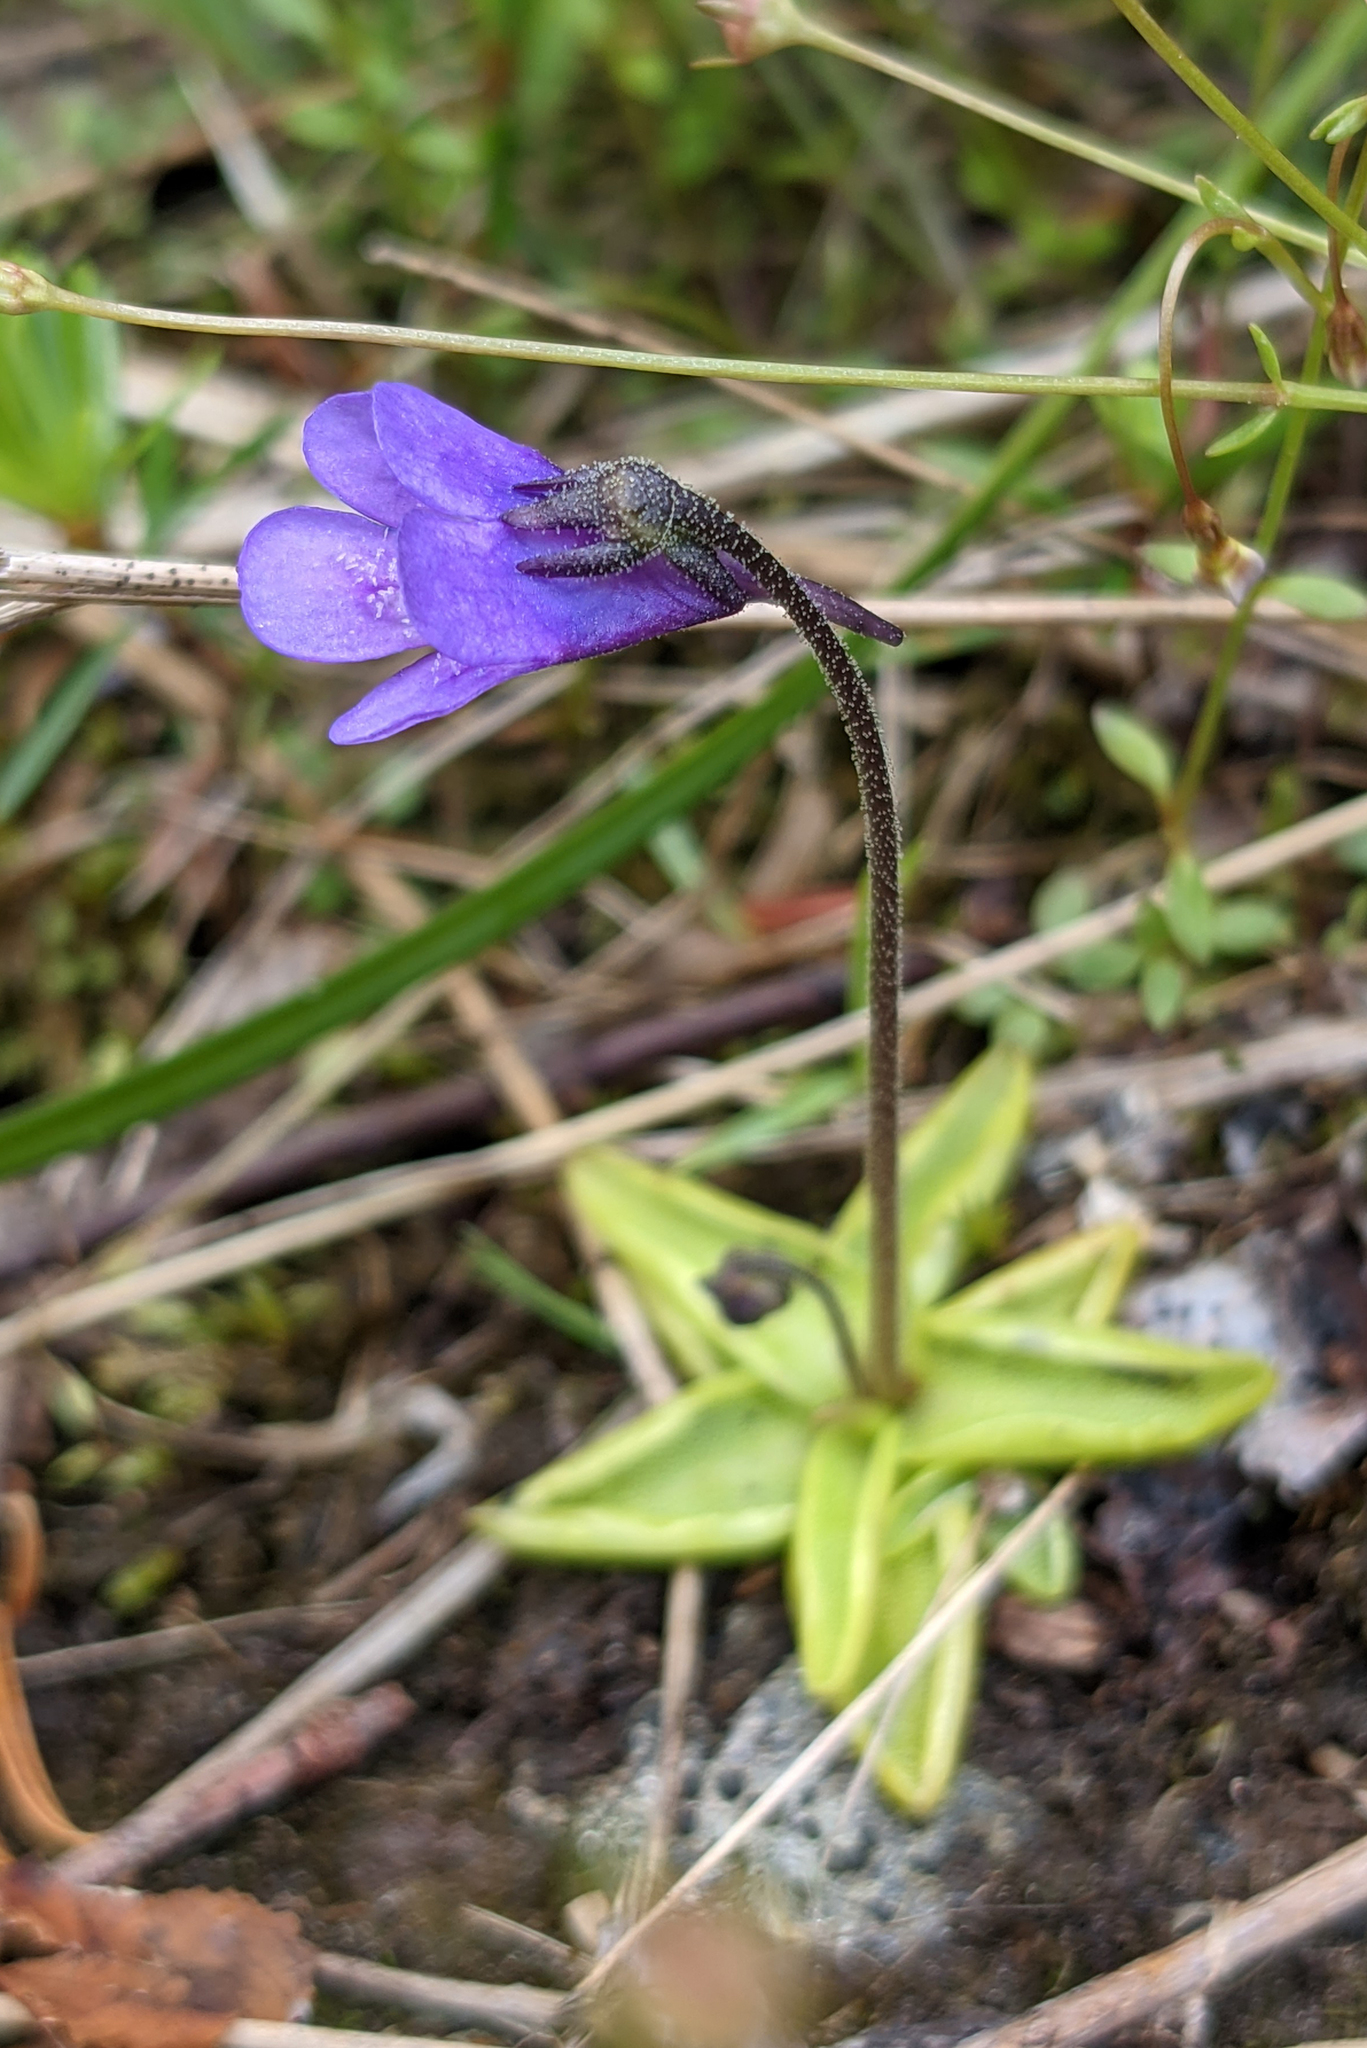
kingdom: Plantae
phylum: Tracheophyta
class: Magnoliopsida
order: Lamiales
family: Lentibulariaceae
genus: Pinguicula
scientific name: Pinguicula vulgaris
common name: Common butterwort
